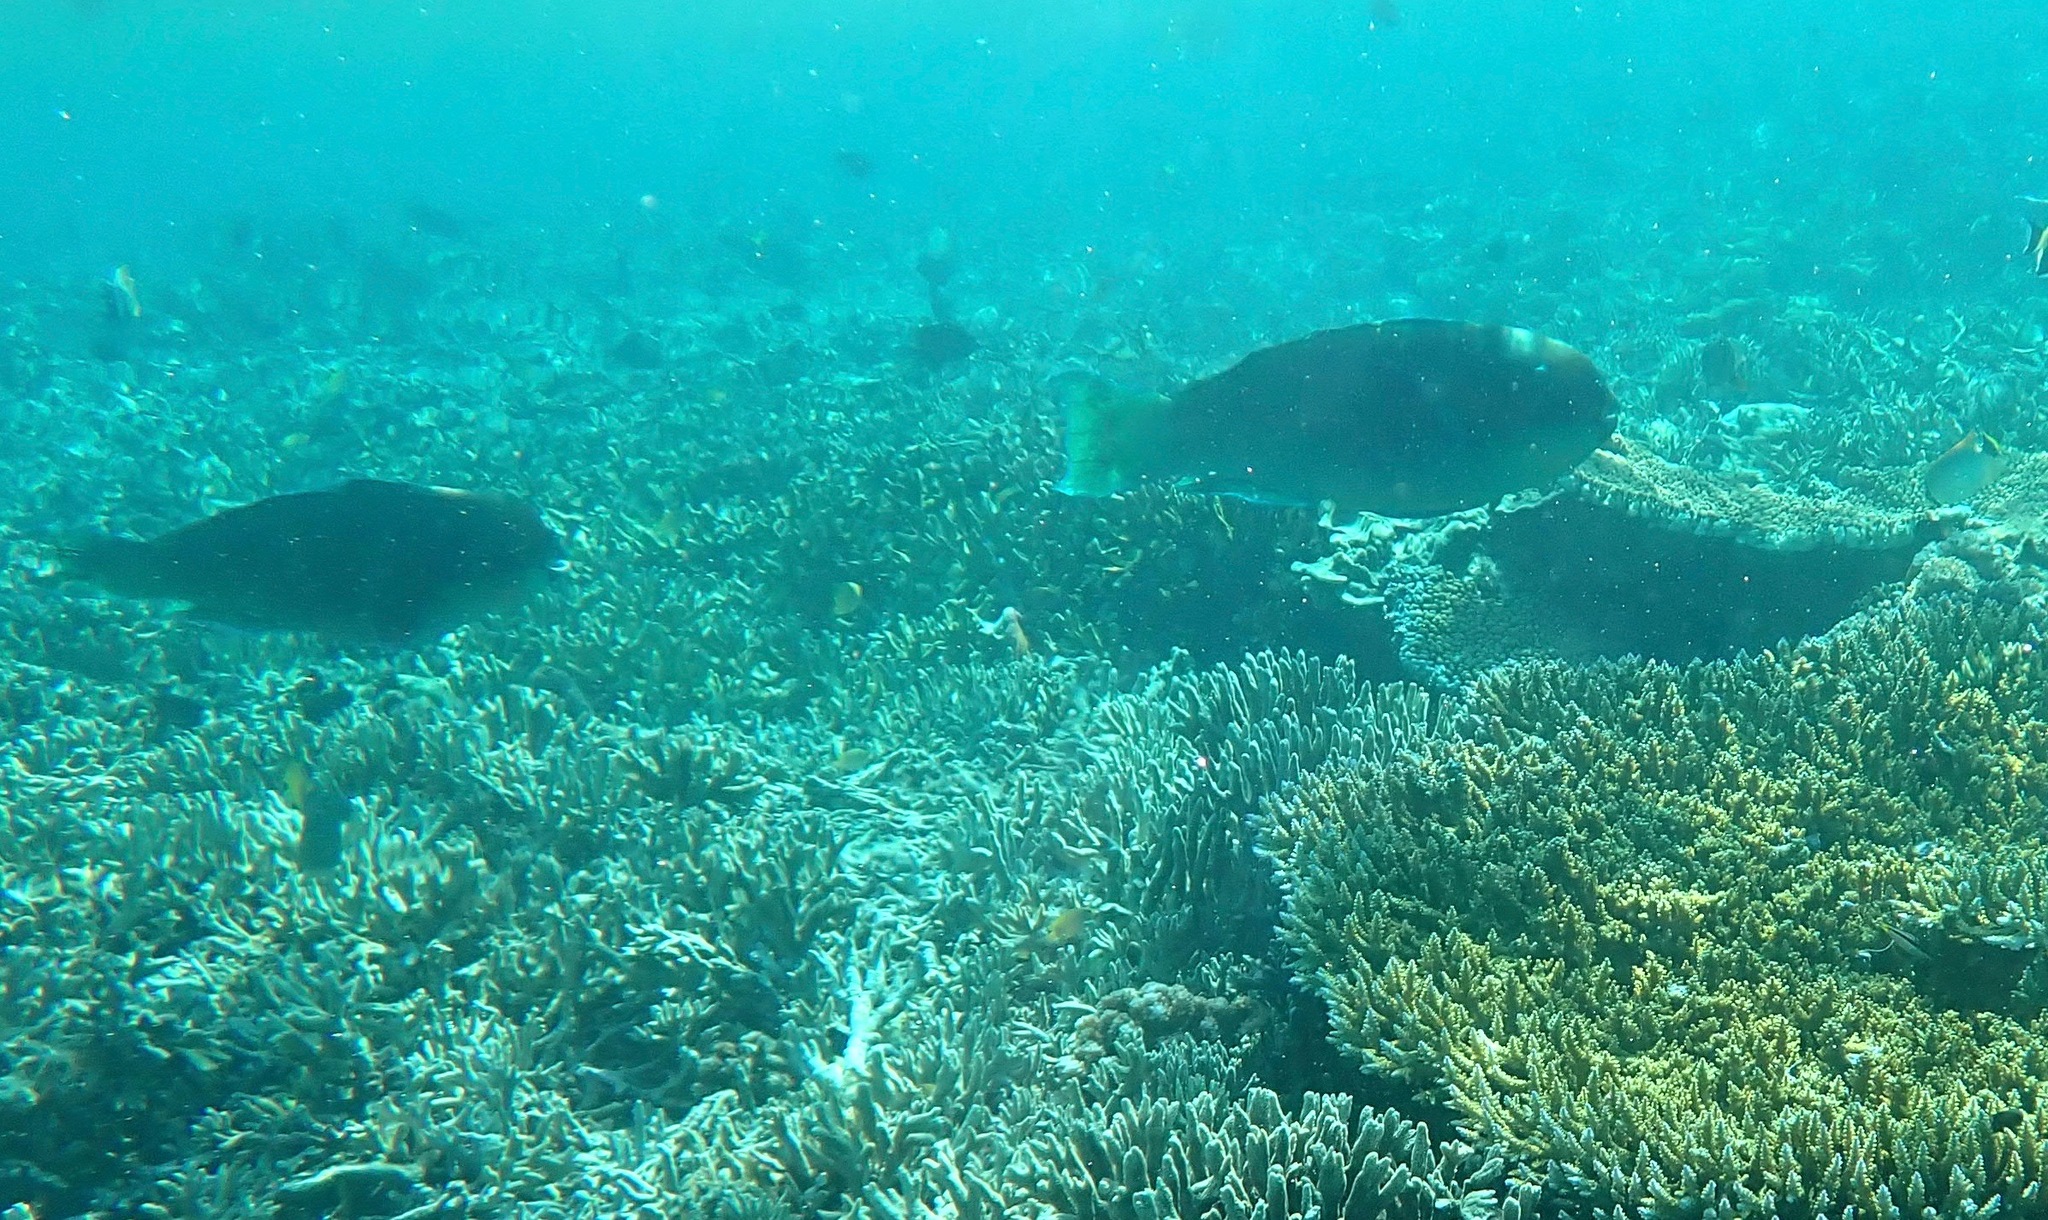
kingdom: Animalia
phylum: Chordata
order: Perciformes
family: Scaridae
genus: Chlorurus
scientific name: Chlorurus microrhinos
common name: Steephead parrotfish
